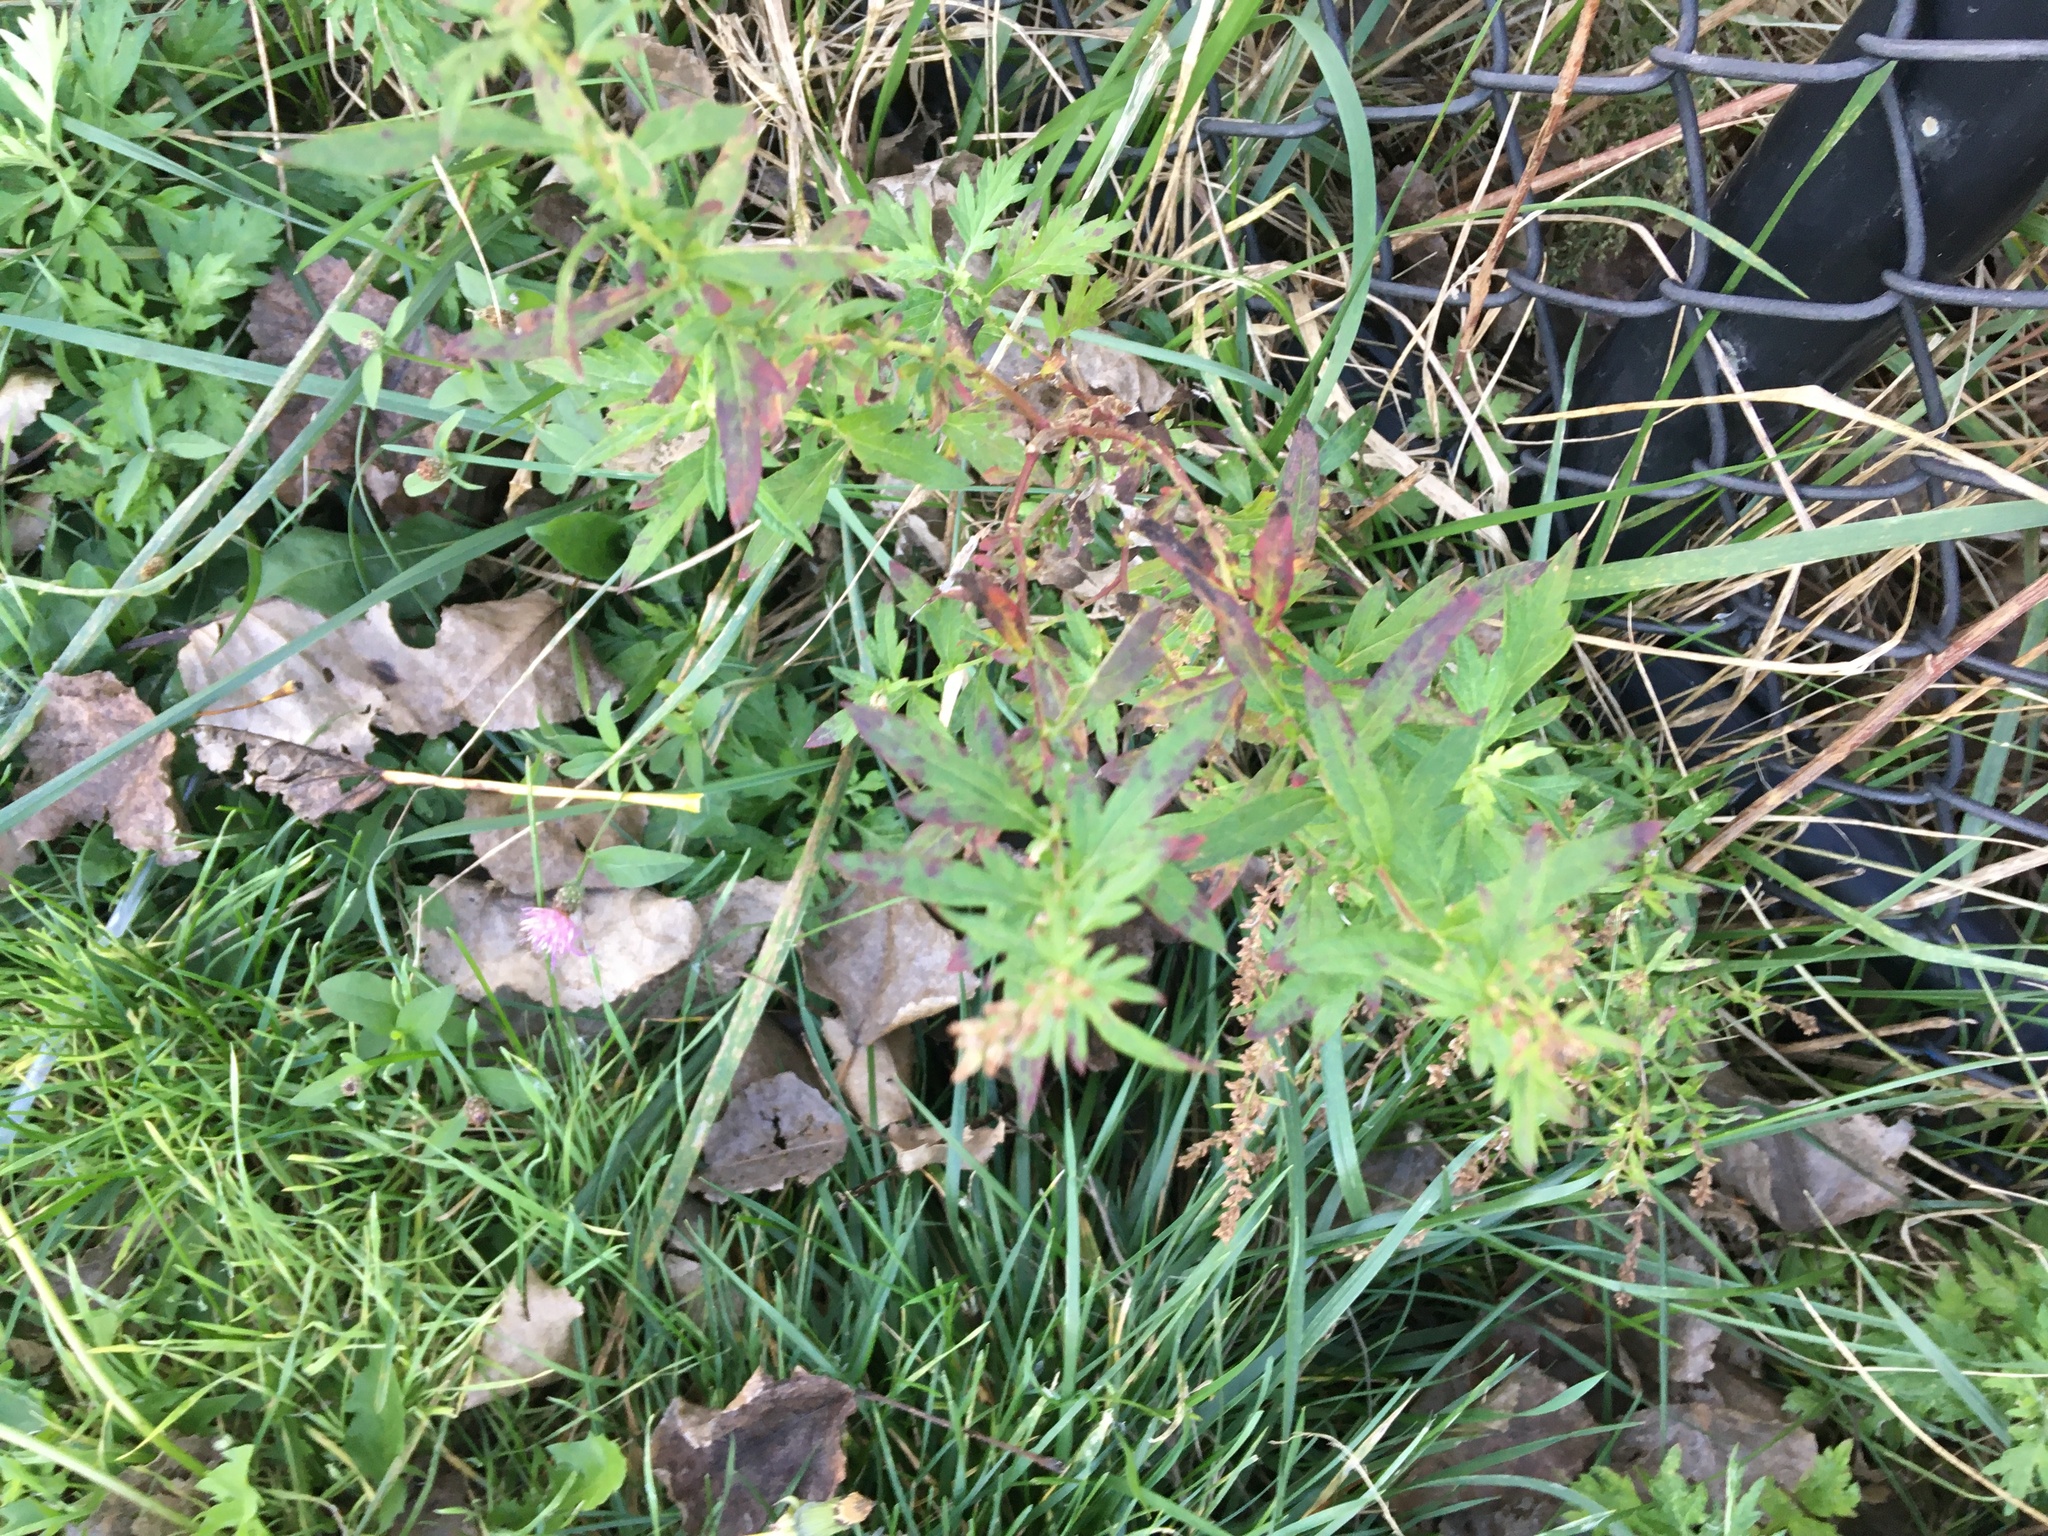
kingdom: Plantae
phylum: Tracheophyta
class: Magnoliopsida
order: Asterales
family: Asteraceae
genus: Artemisia
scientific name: Artemisia vulgaris
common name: Mugwort
